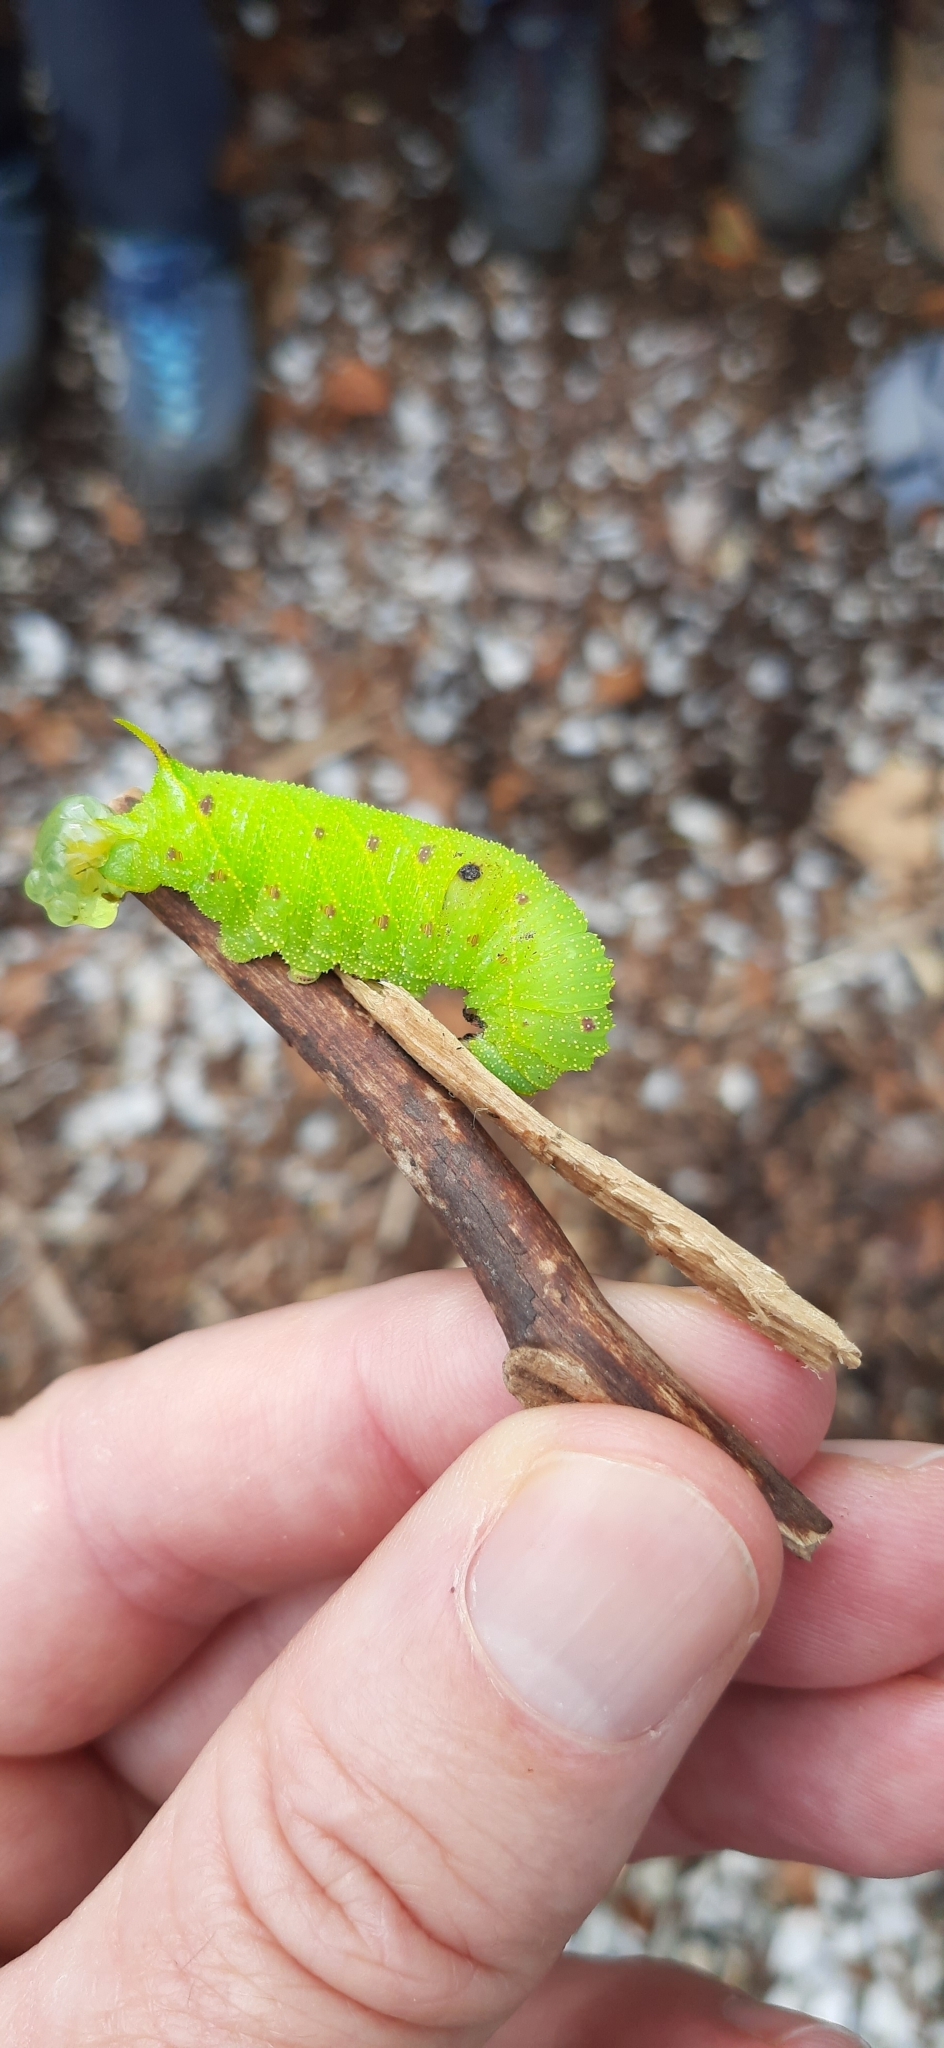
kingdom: Animalia
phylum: Arthropoda
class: Insecta
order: Lepidoptera
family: Sphingidae
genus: Laothoe
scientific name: Laothoe populi
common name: Poplar hawk-moth
